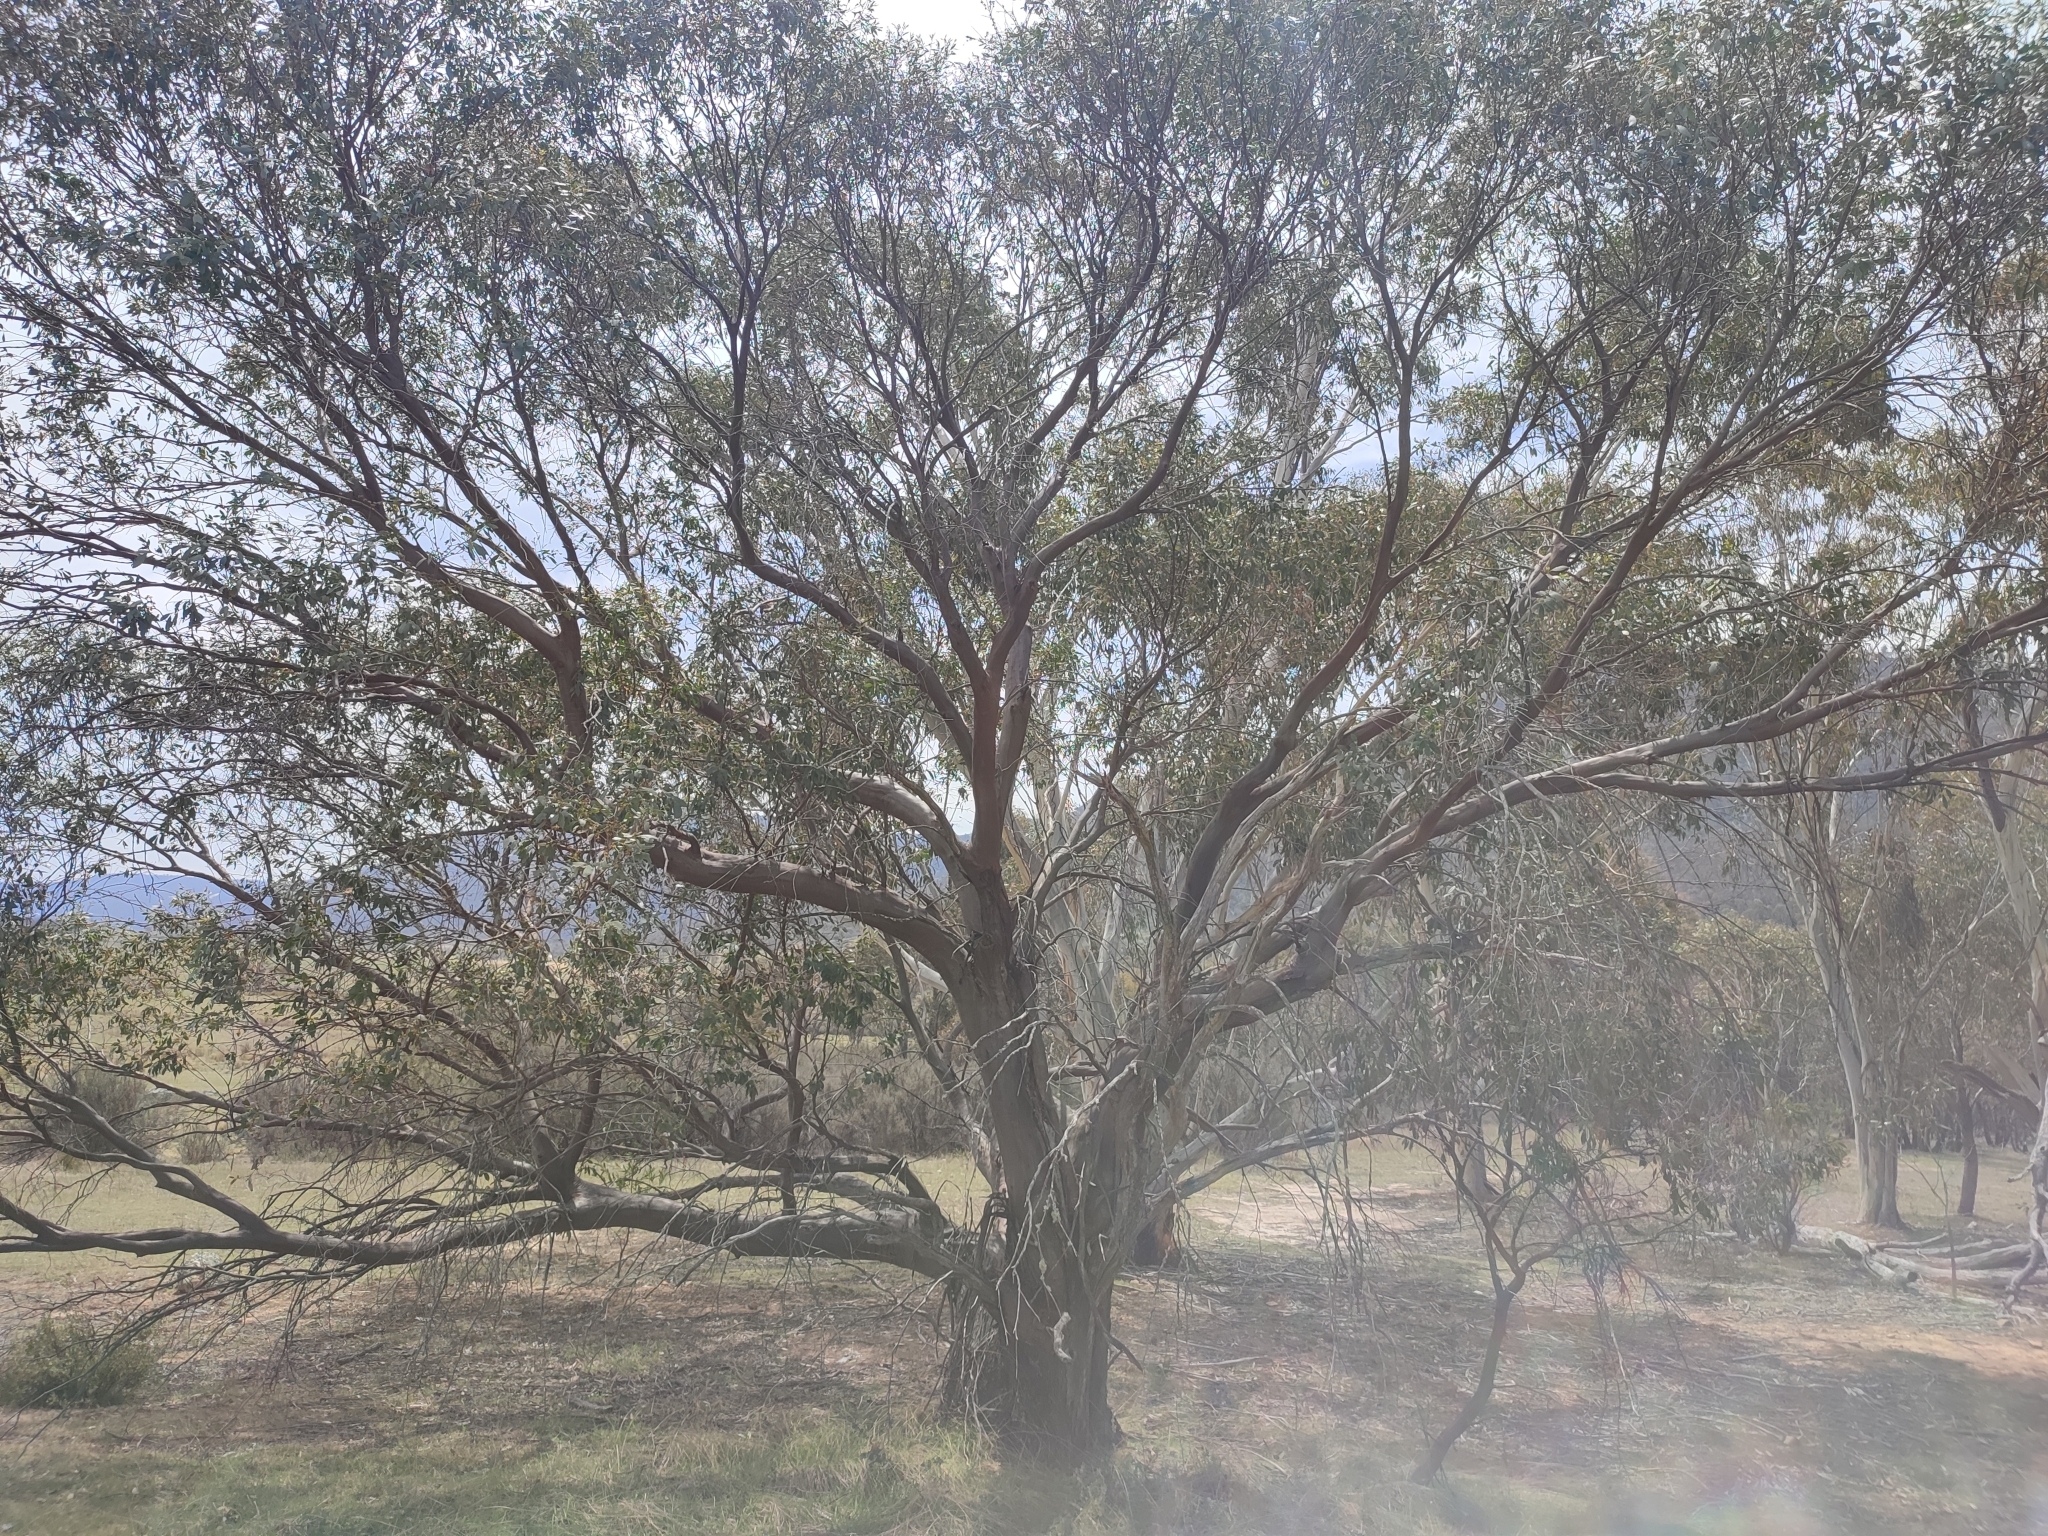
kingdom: Plantae
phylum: Tracheophyta
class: Magnoliopsida
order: Myrtales
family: Myrtaceae
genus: Eucalyptus
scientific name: Eucalyptus stellulata
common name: Black sallee
